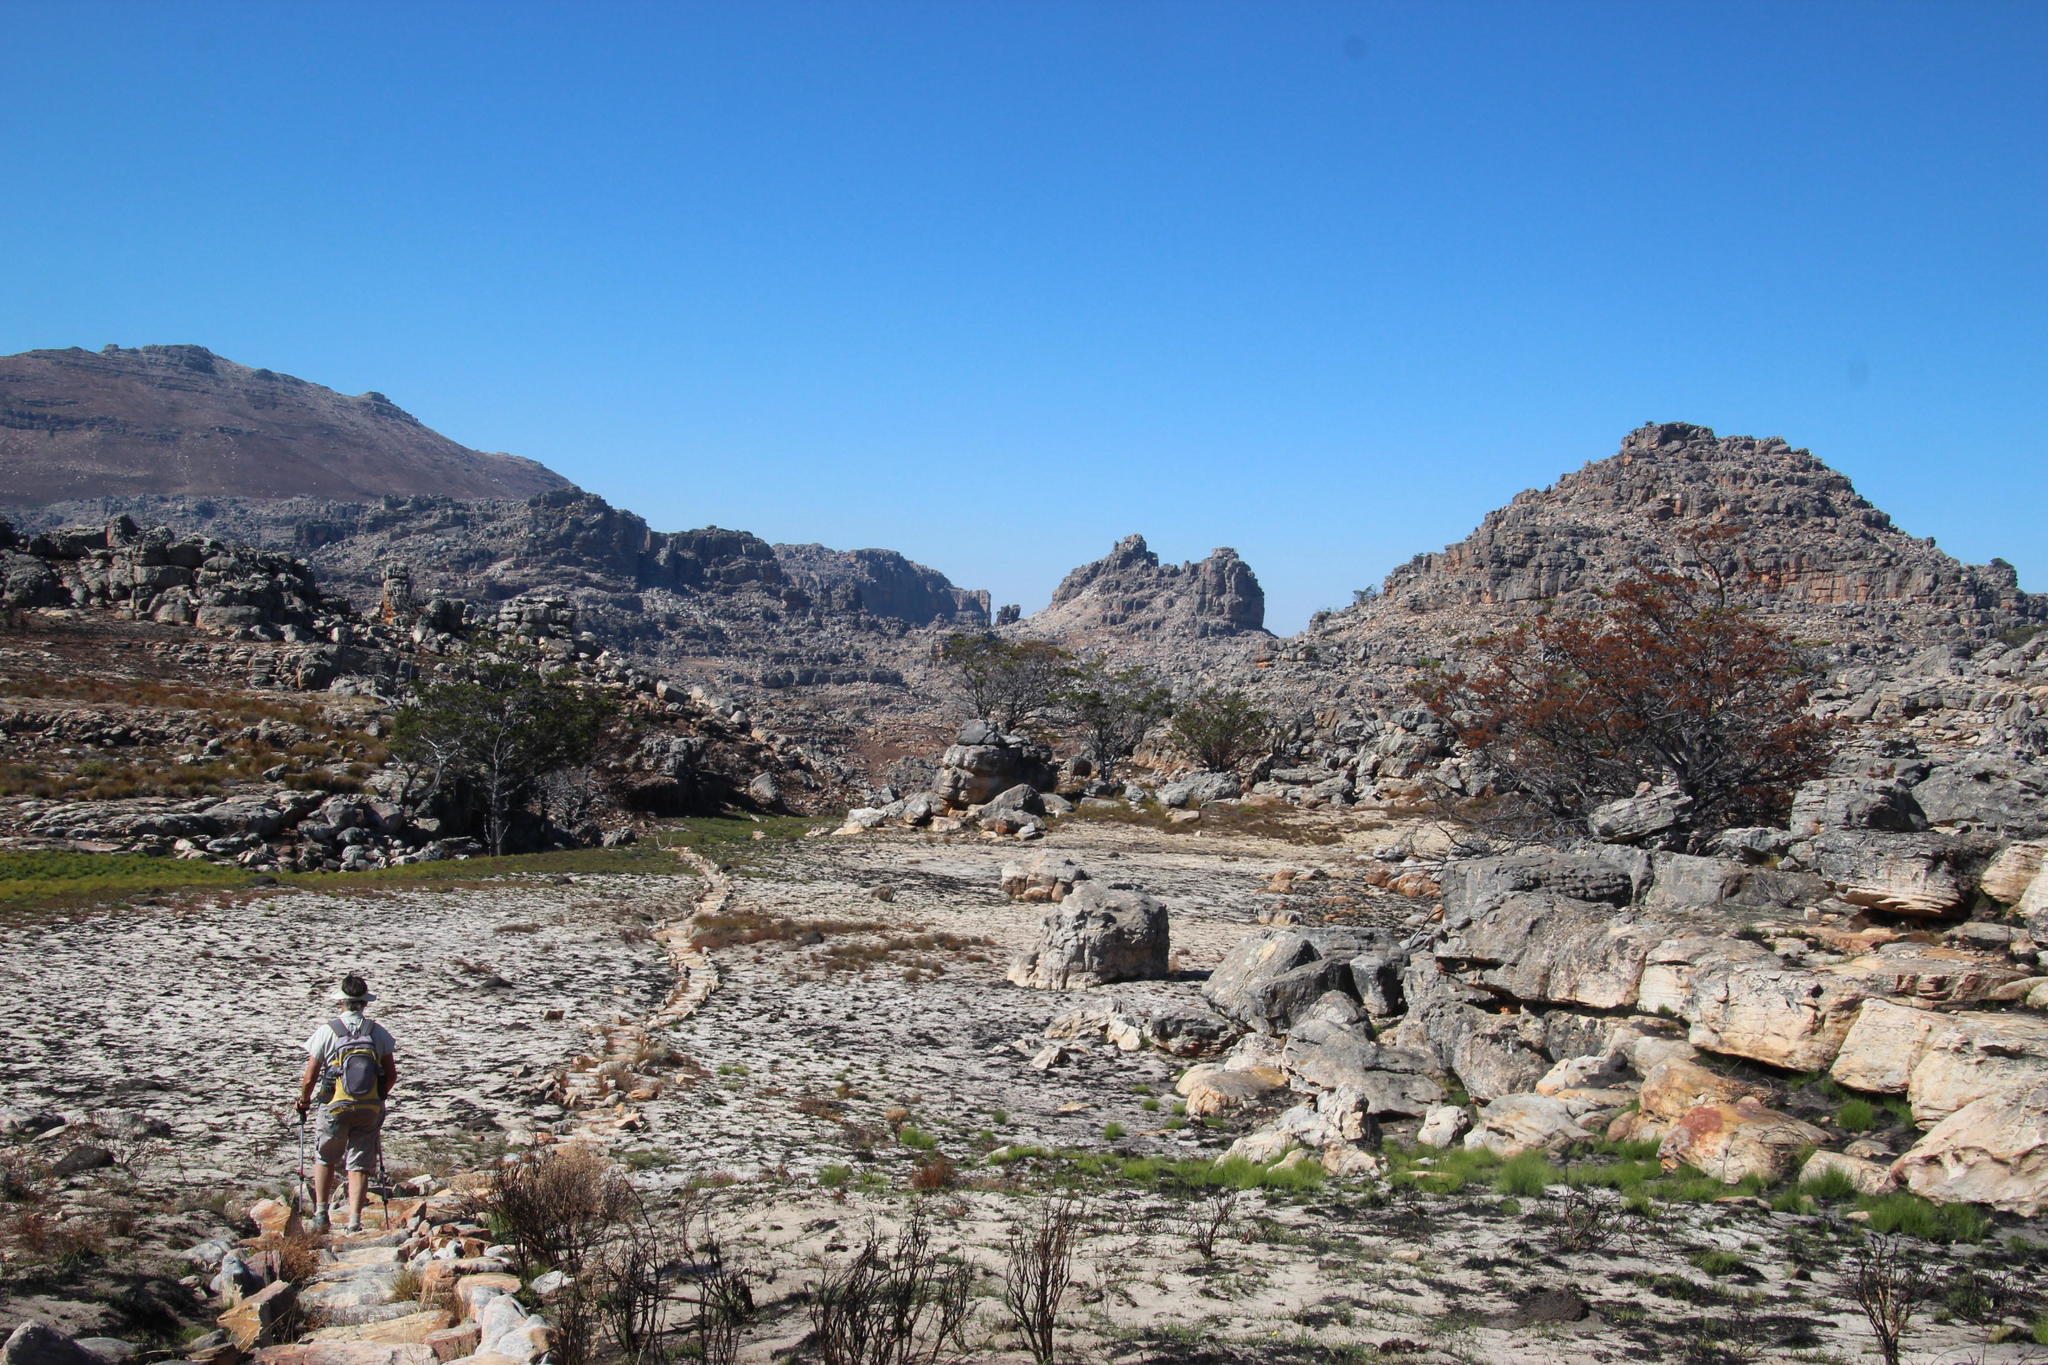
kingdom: Plantae
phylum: Tracheophyta
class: Pinopsida
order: Pinales
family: Cupressaceae
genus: Widdringtonia
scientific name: Widdringtonia nodiflora
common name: Cape cypress
